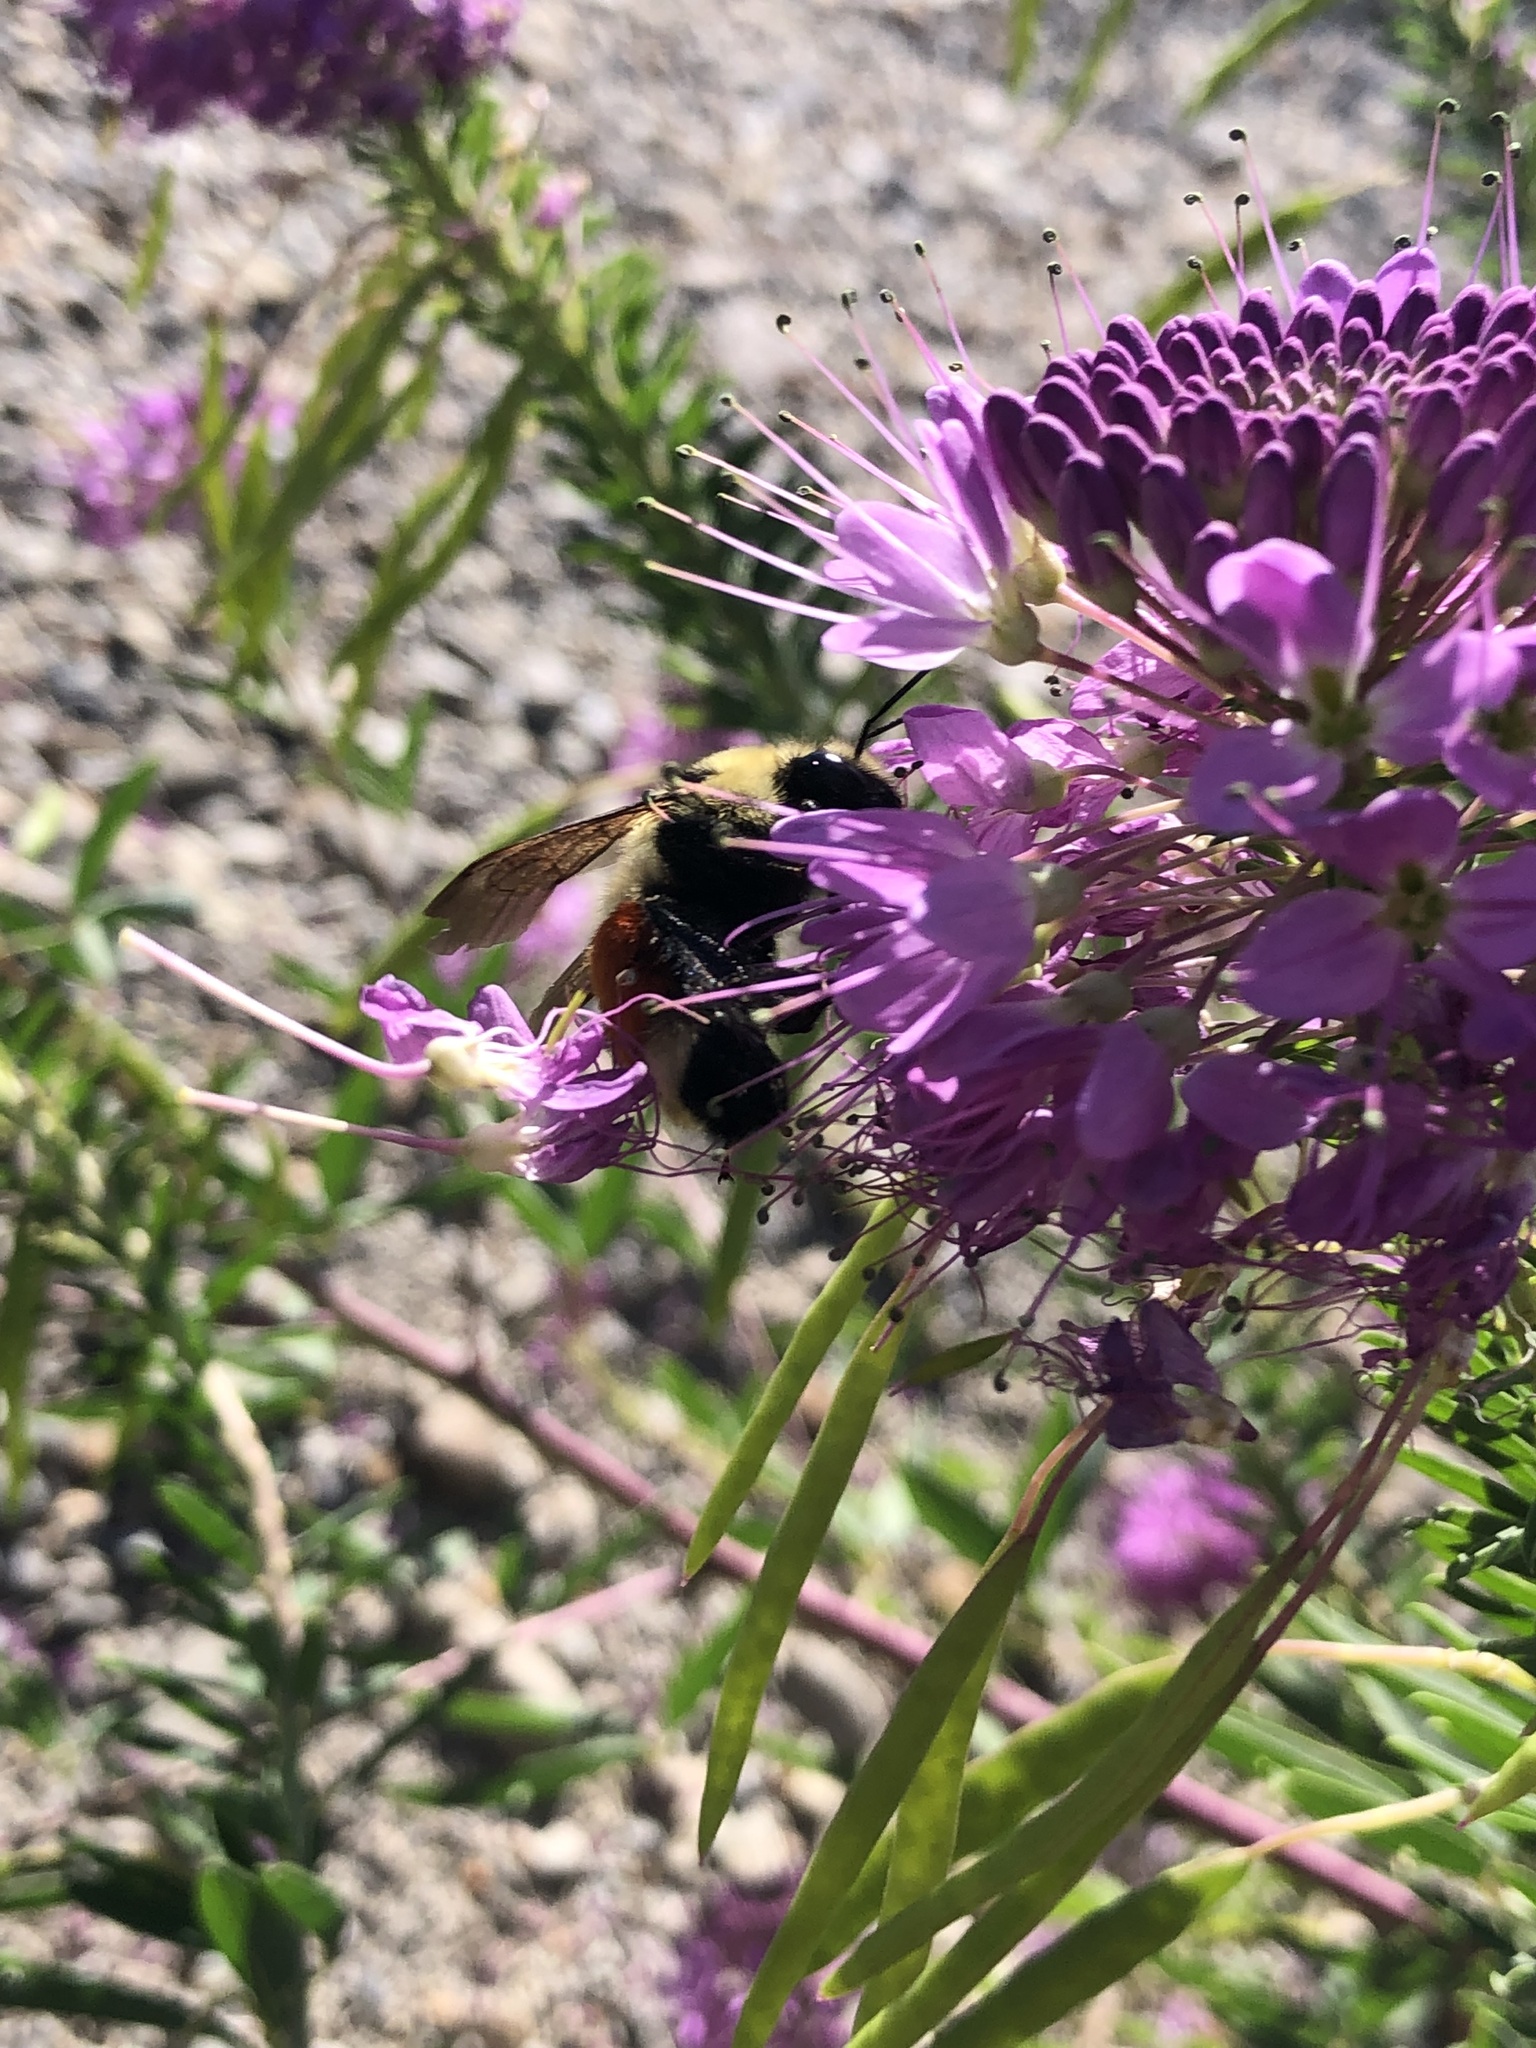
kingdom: Animalia
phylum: Arthropoda
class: Insecta
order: Hymenoptera
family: Apidae
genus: Bombus
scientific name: Bombus huntii
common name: Hunt bumble bee
